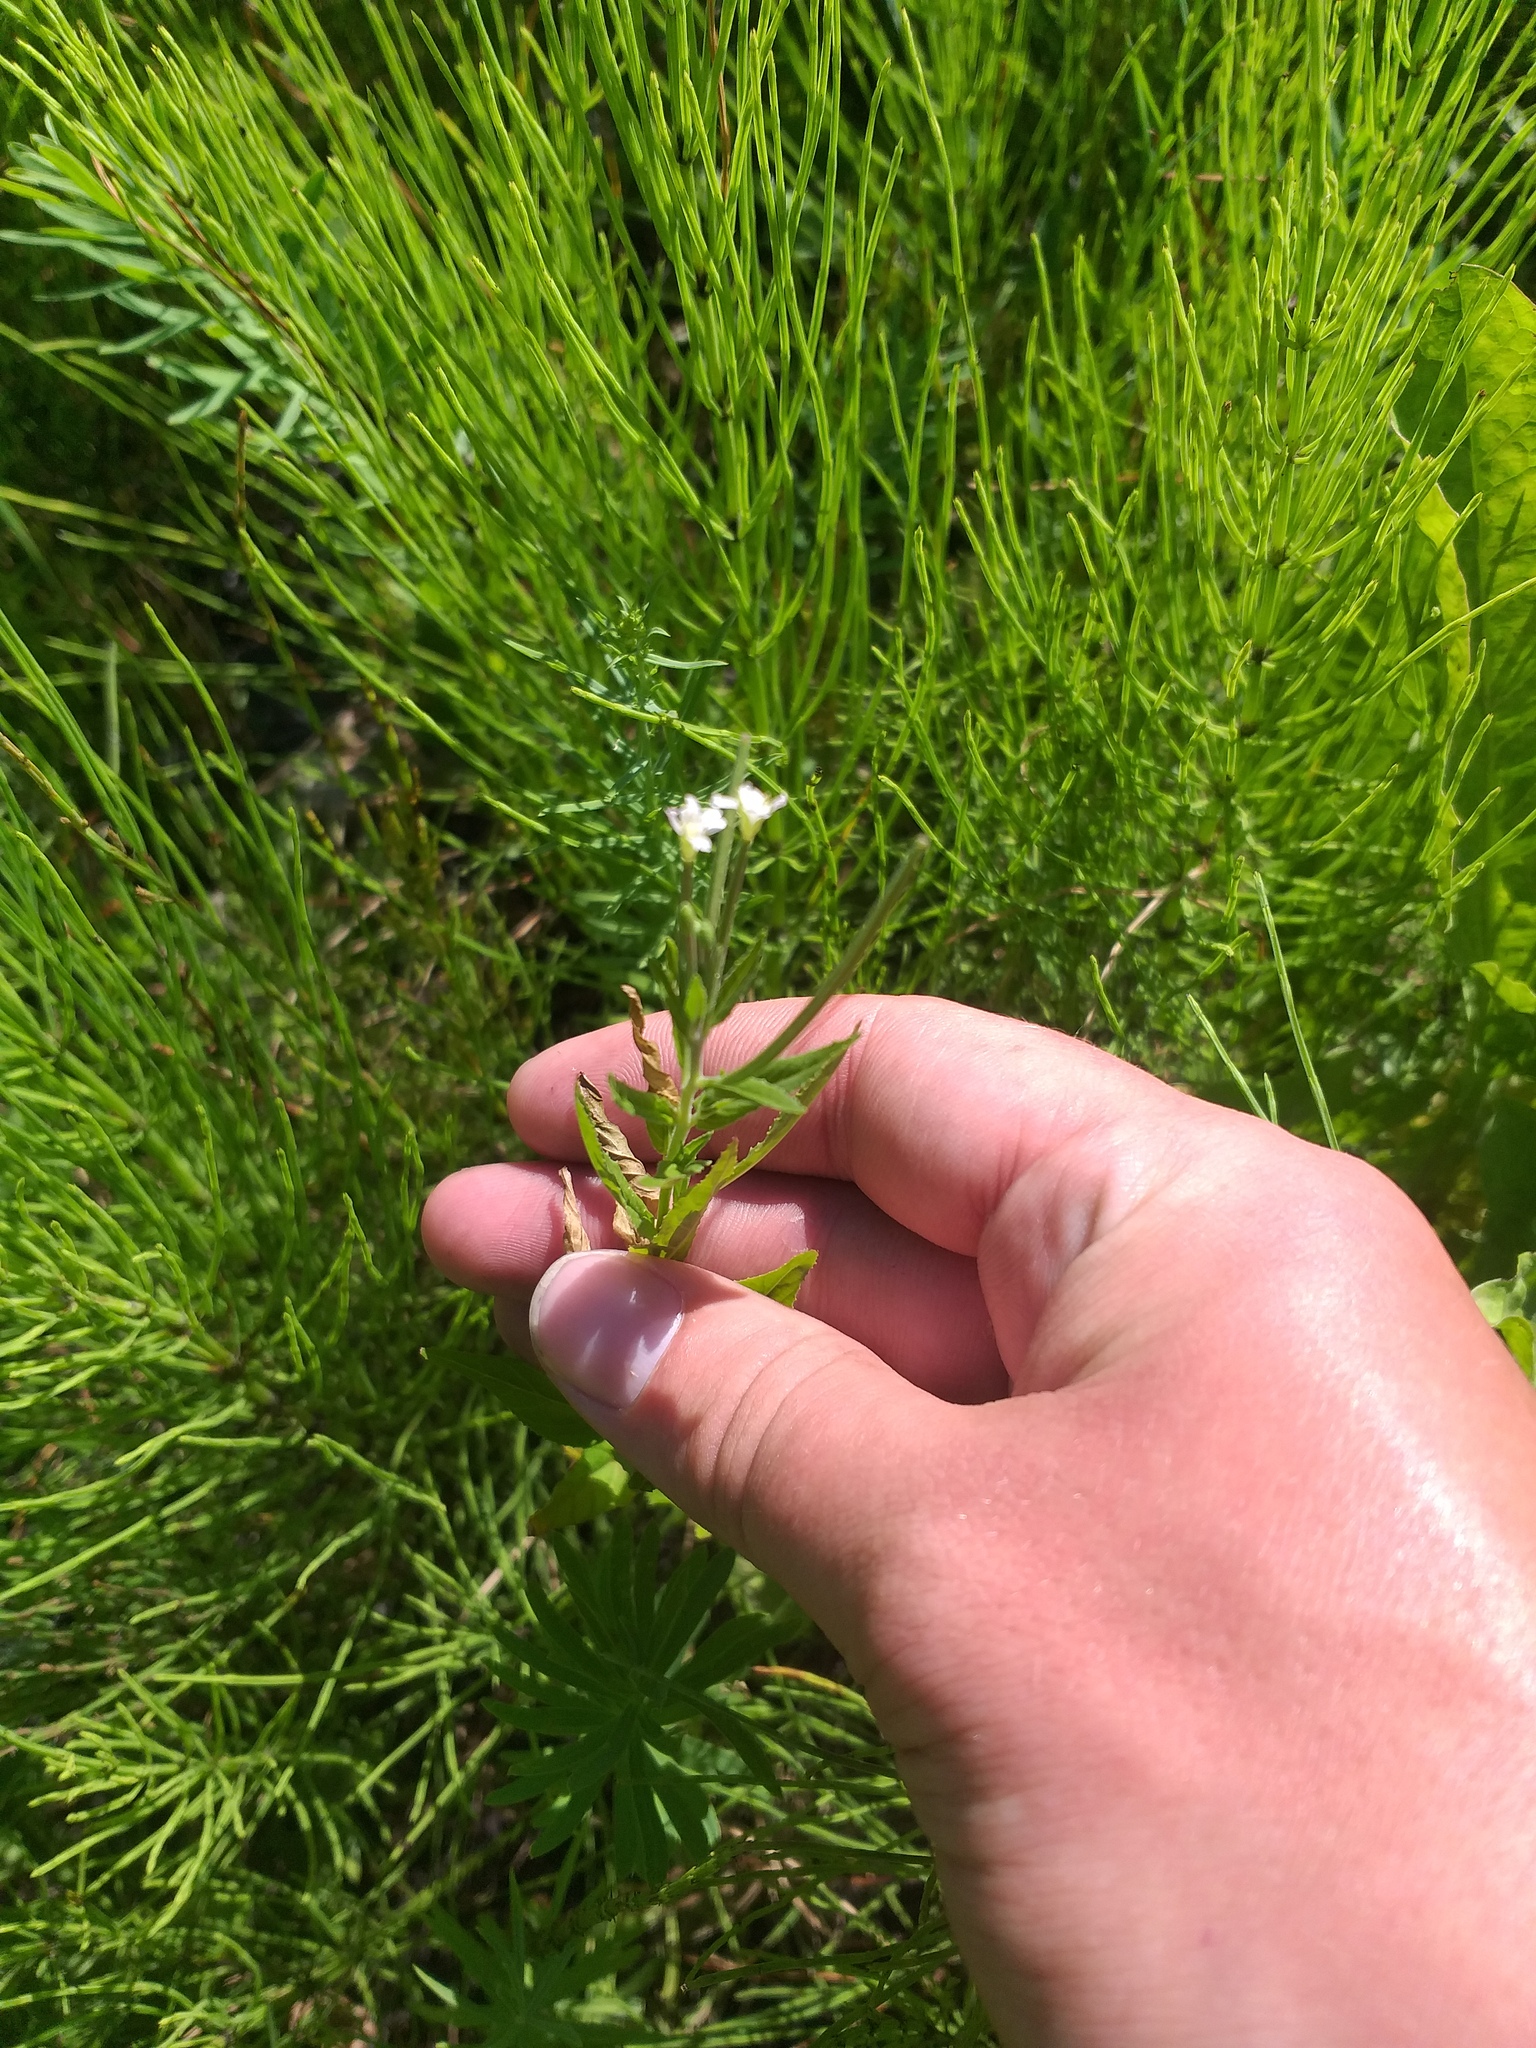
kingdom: Plantae
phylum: Tracheophyta
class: Magnoliopsida
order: Myrtales
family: Onagraceae
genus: Epilobium
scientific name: Epilobium pseudorubescens
